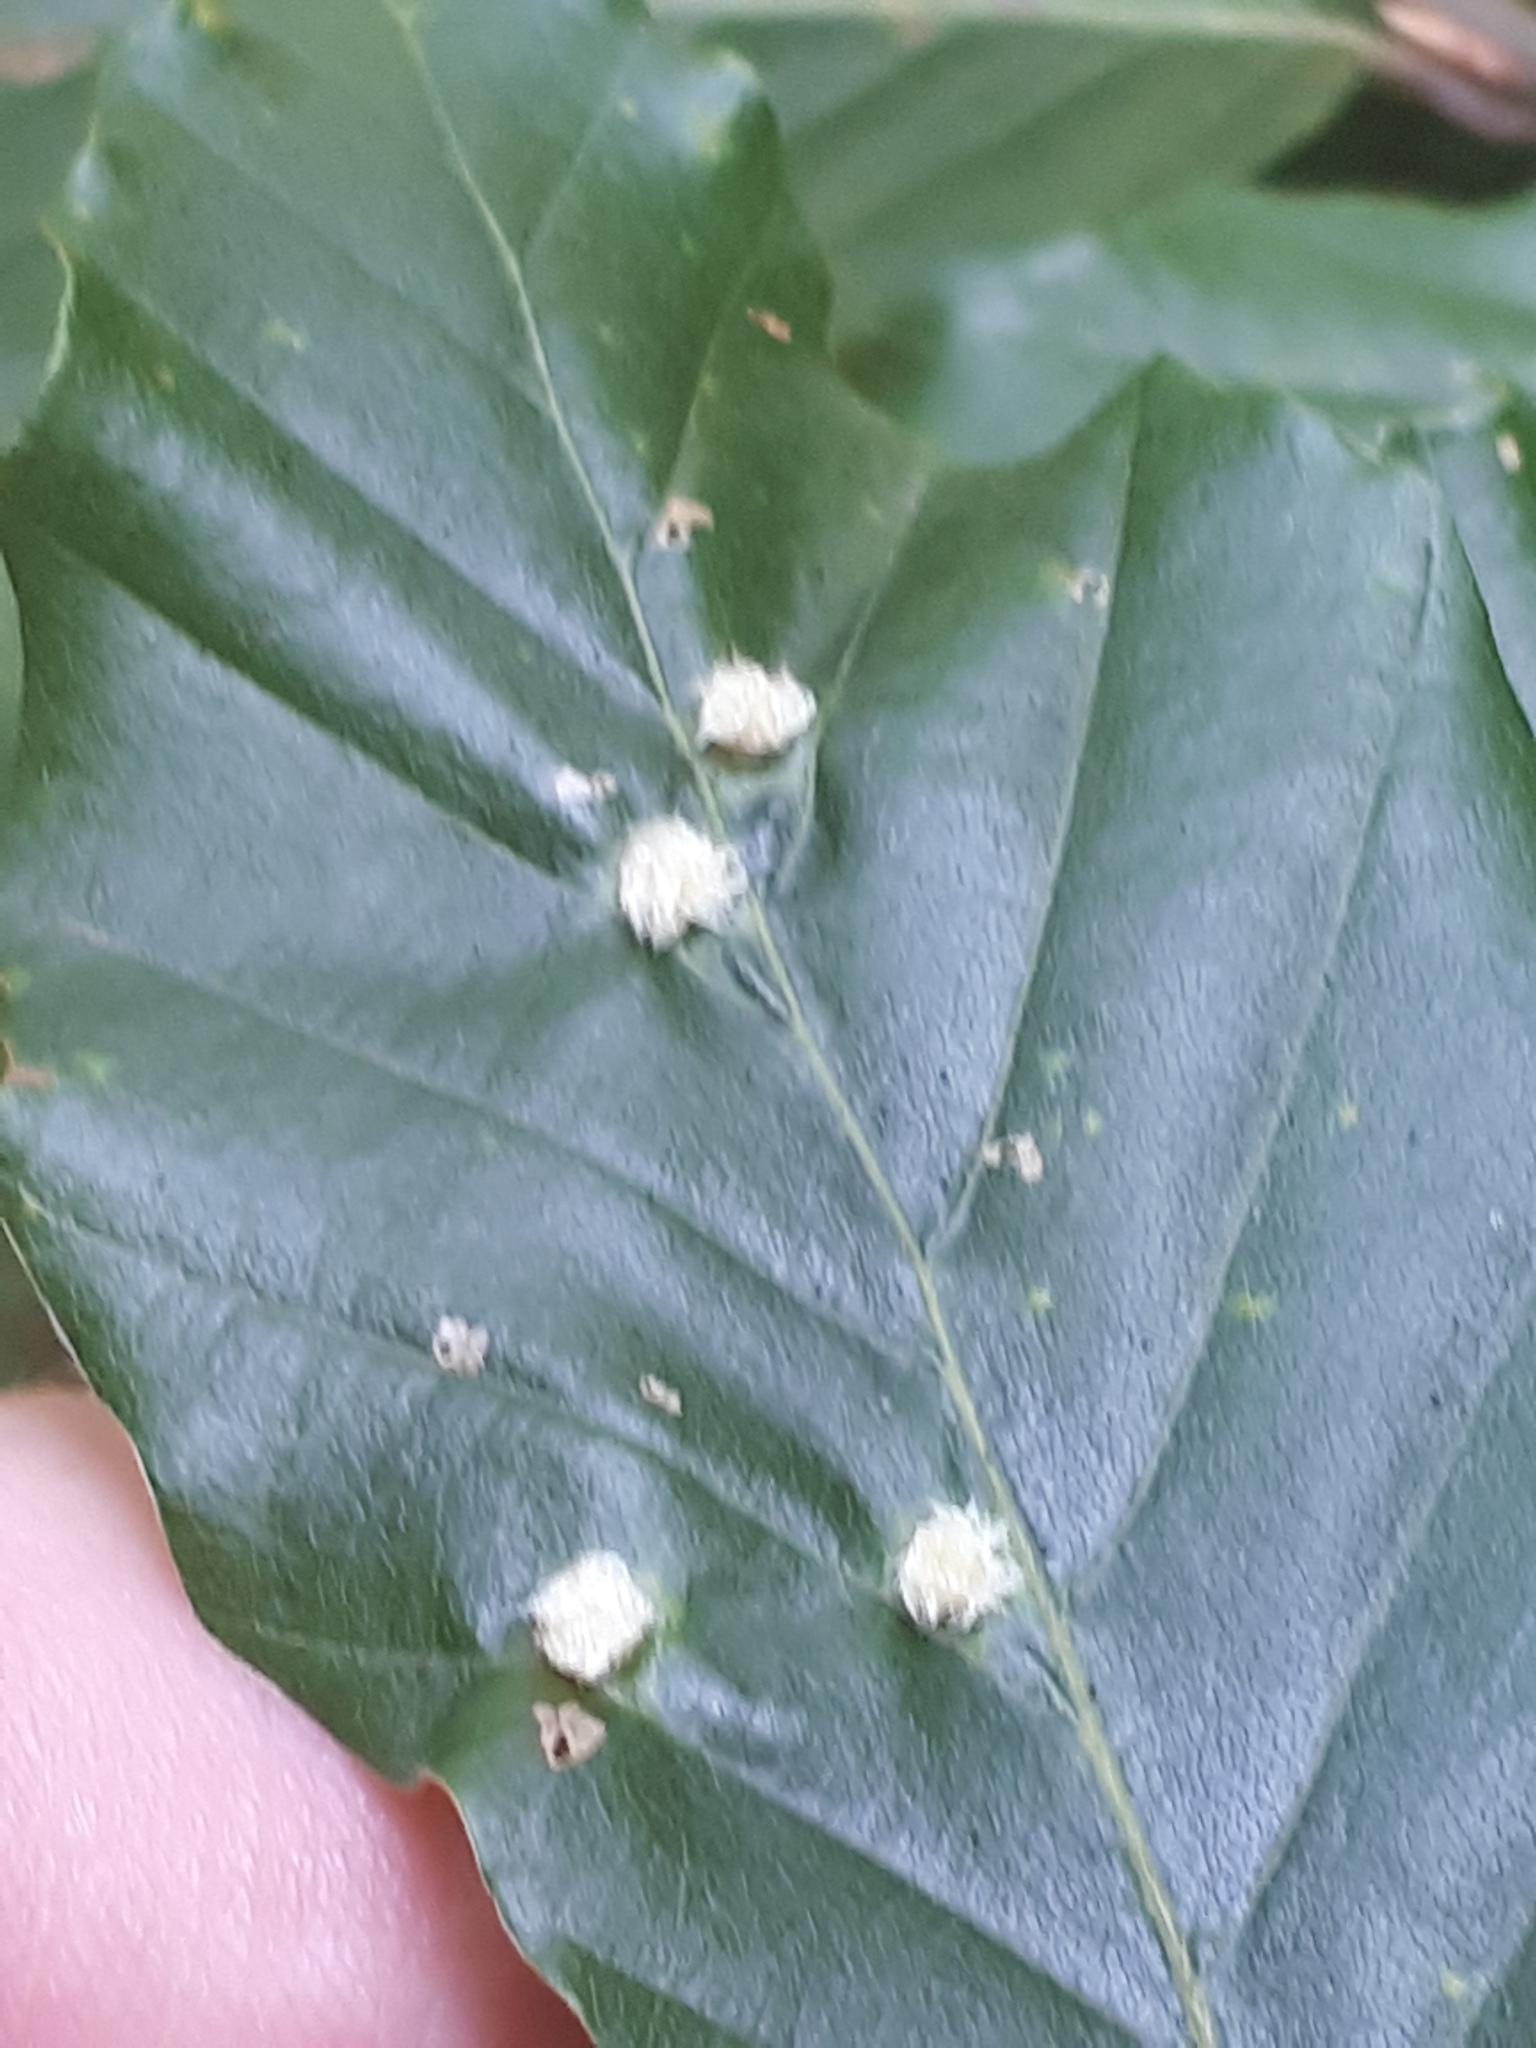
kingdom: Animalia
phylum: Arthropoda
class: Insecta
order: Diptera
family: Cecidomyiidae
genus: Hartigiola
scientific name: Hartigiola annulipes
